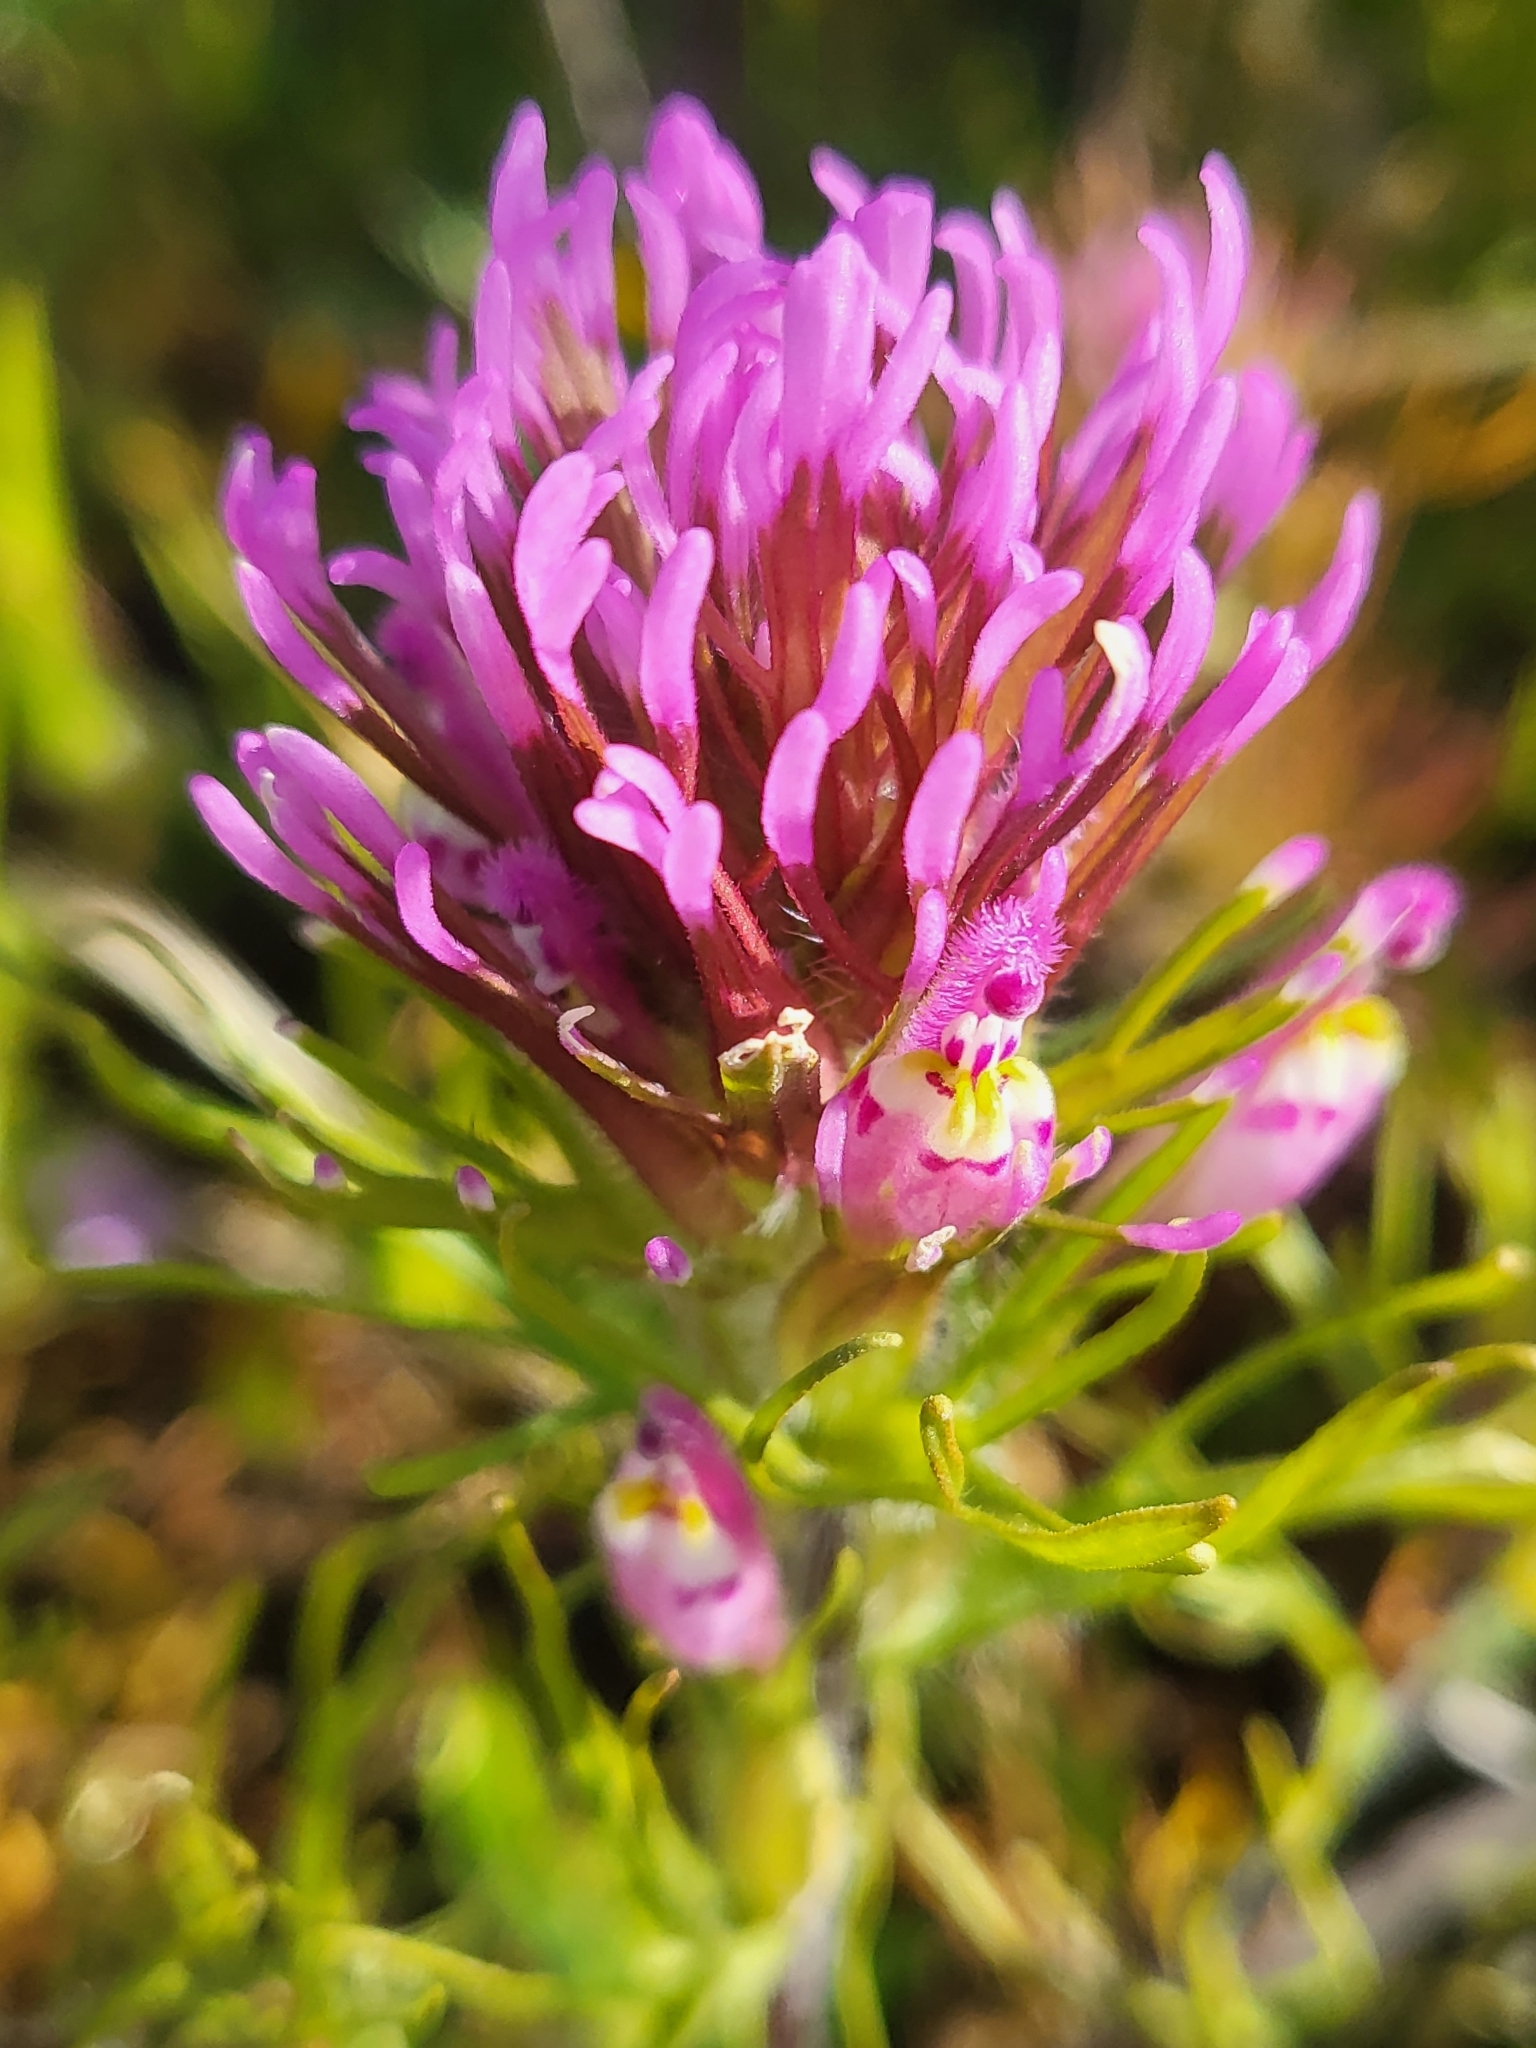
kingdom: Plantae
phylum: Tracheophyta
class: Magnoliopsida
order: Lamiales
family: Orobanchaceae
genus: Castilleja
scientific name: Castilleja exserta
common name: Purple owl-clover
